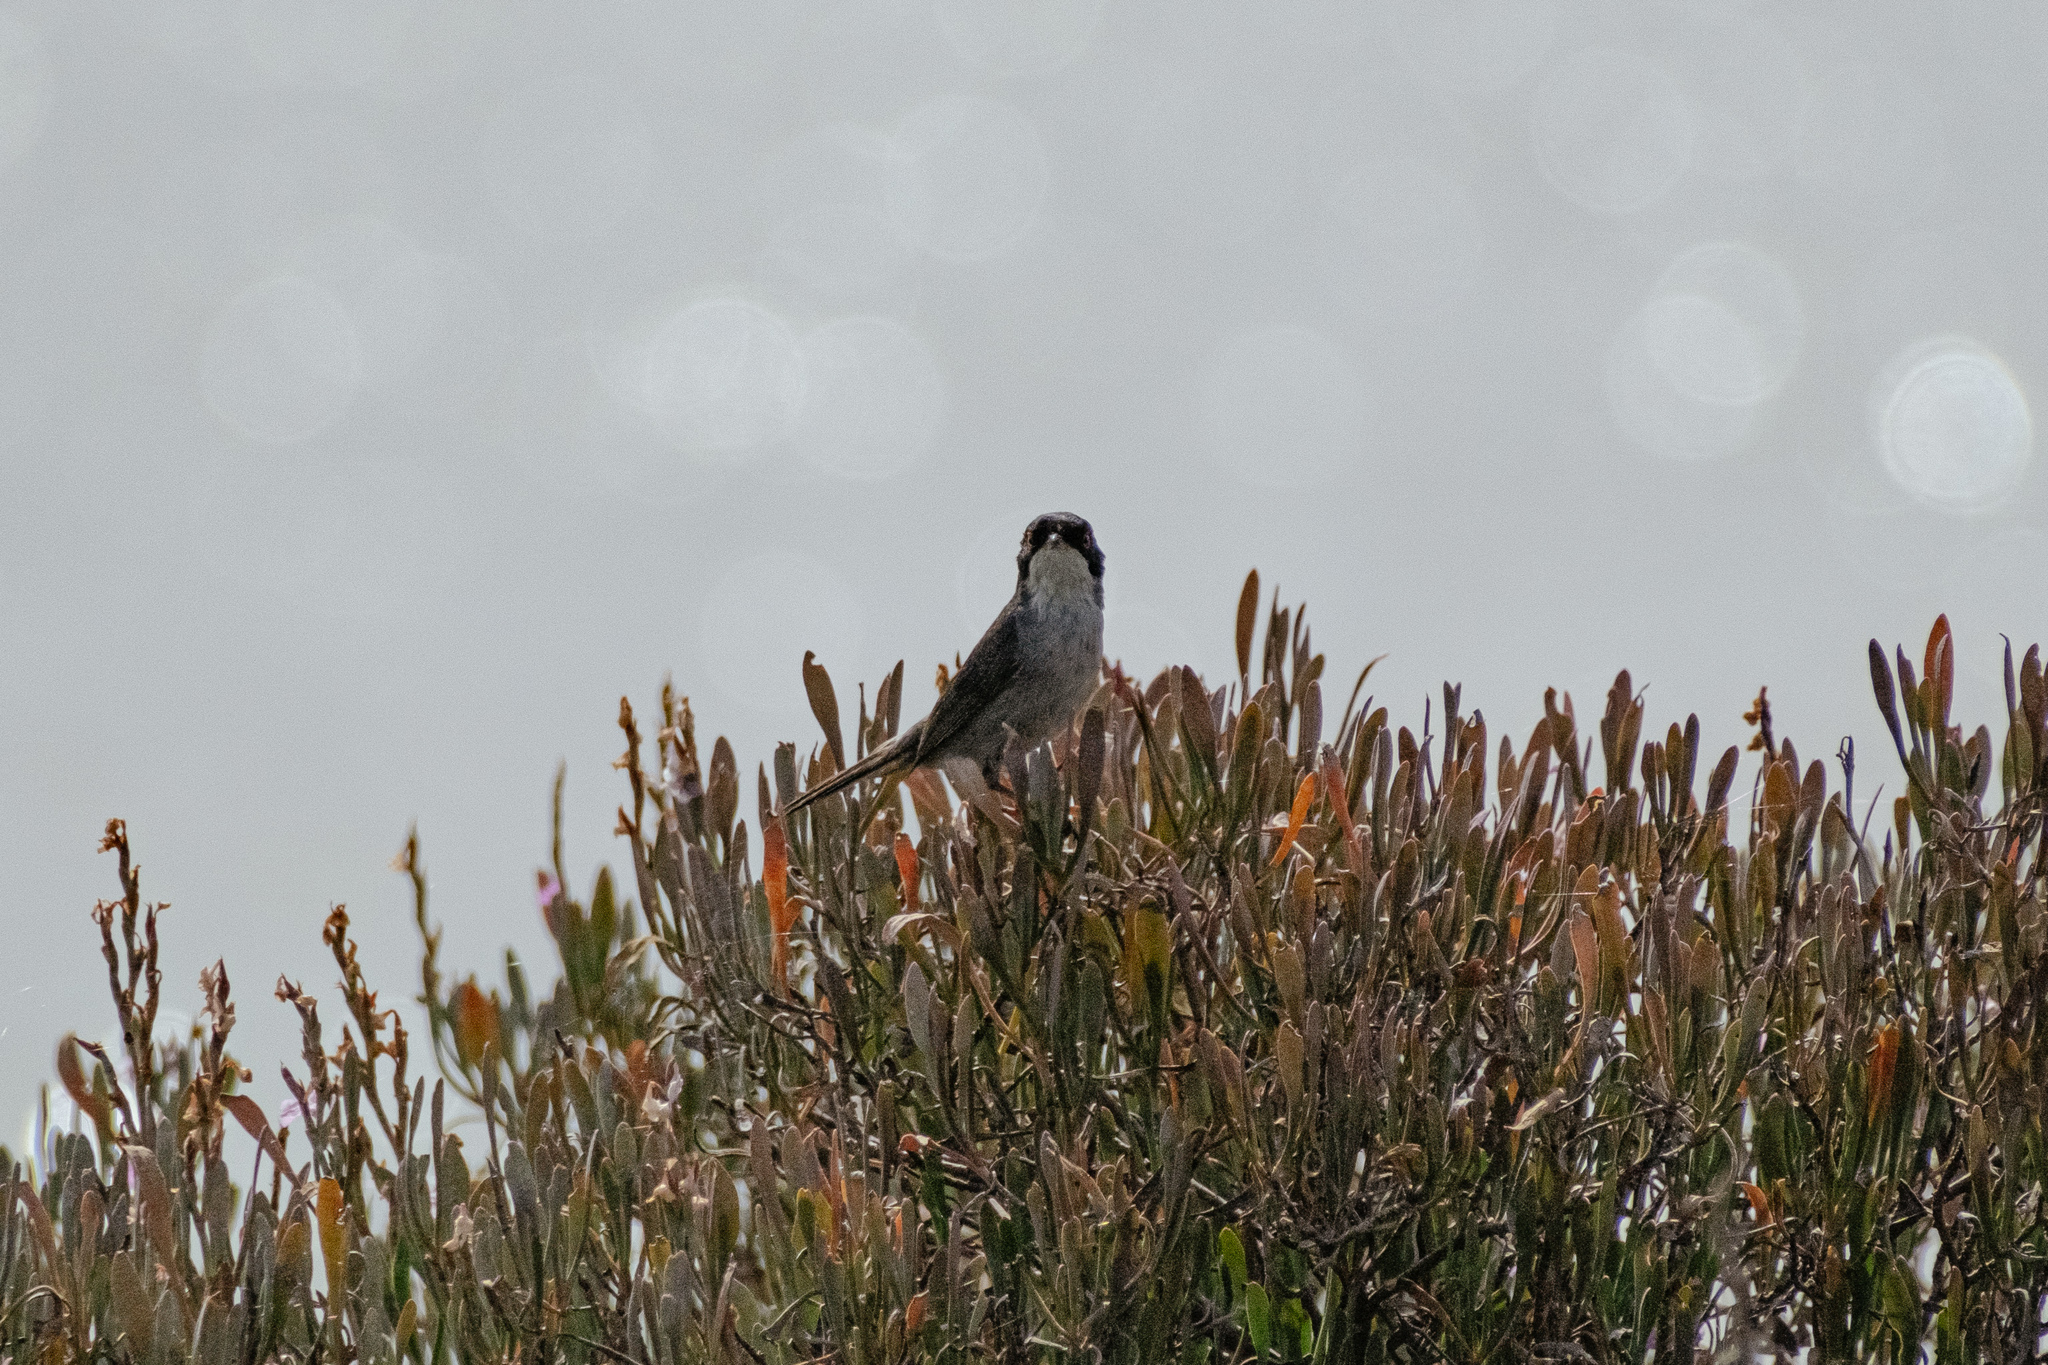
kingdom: Animalia
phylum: Chordata
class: Aves
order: Passeriformes
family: Sylviidae
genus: Curruca
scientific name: Curruca melanocephala
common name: Sardinian warbler
